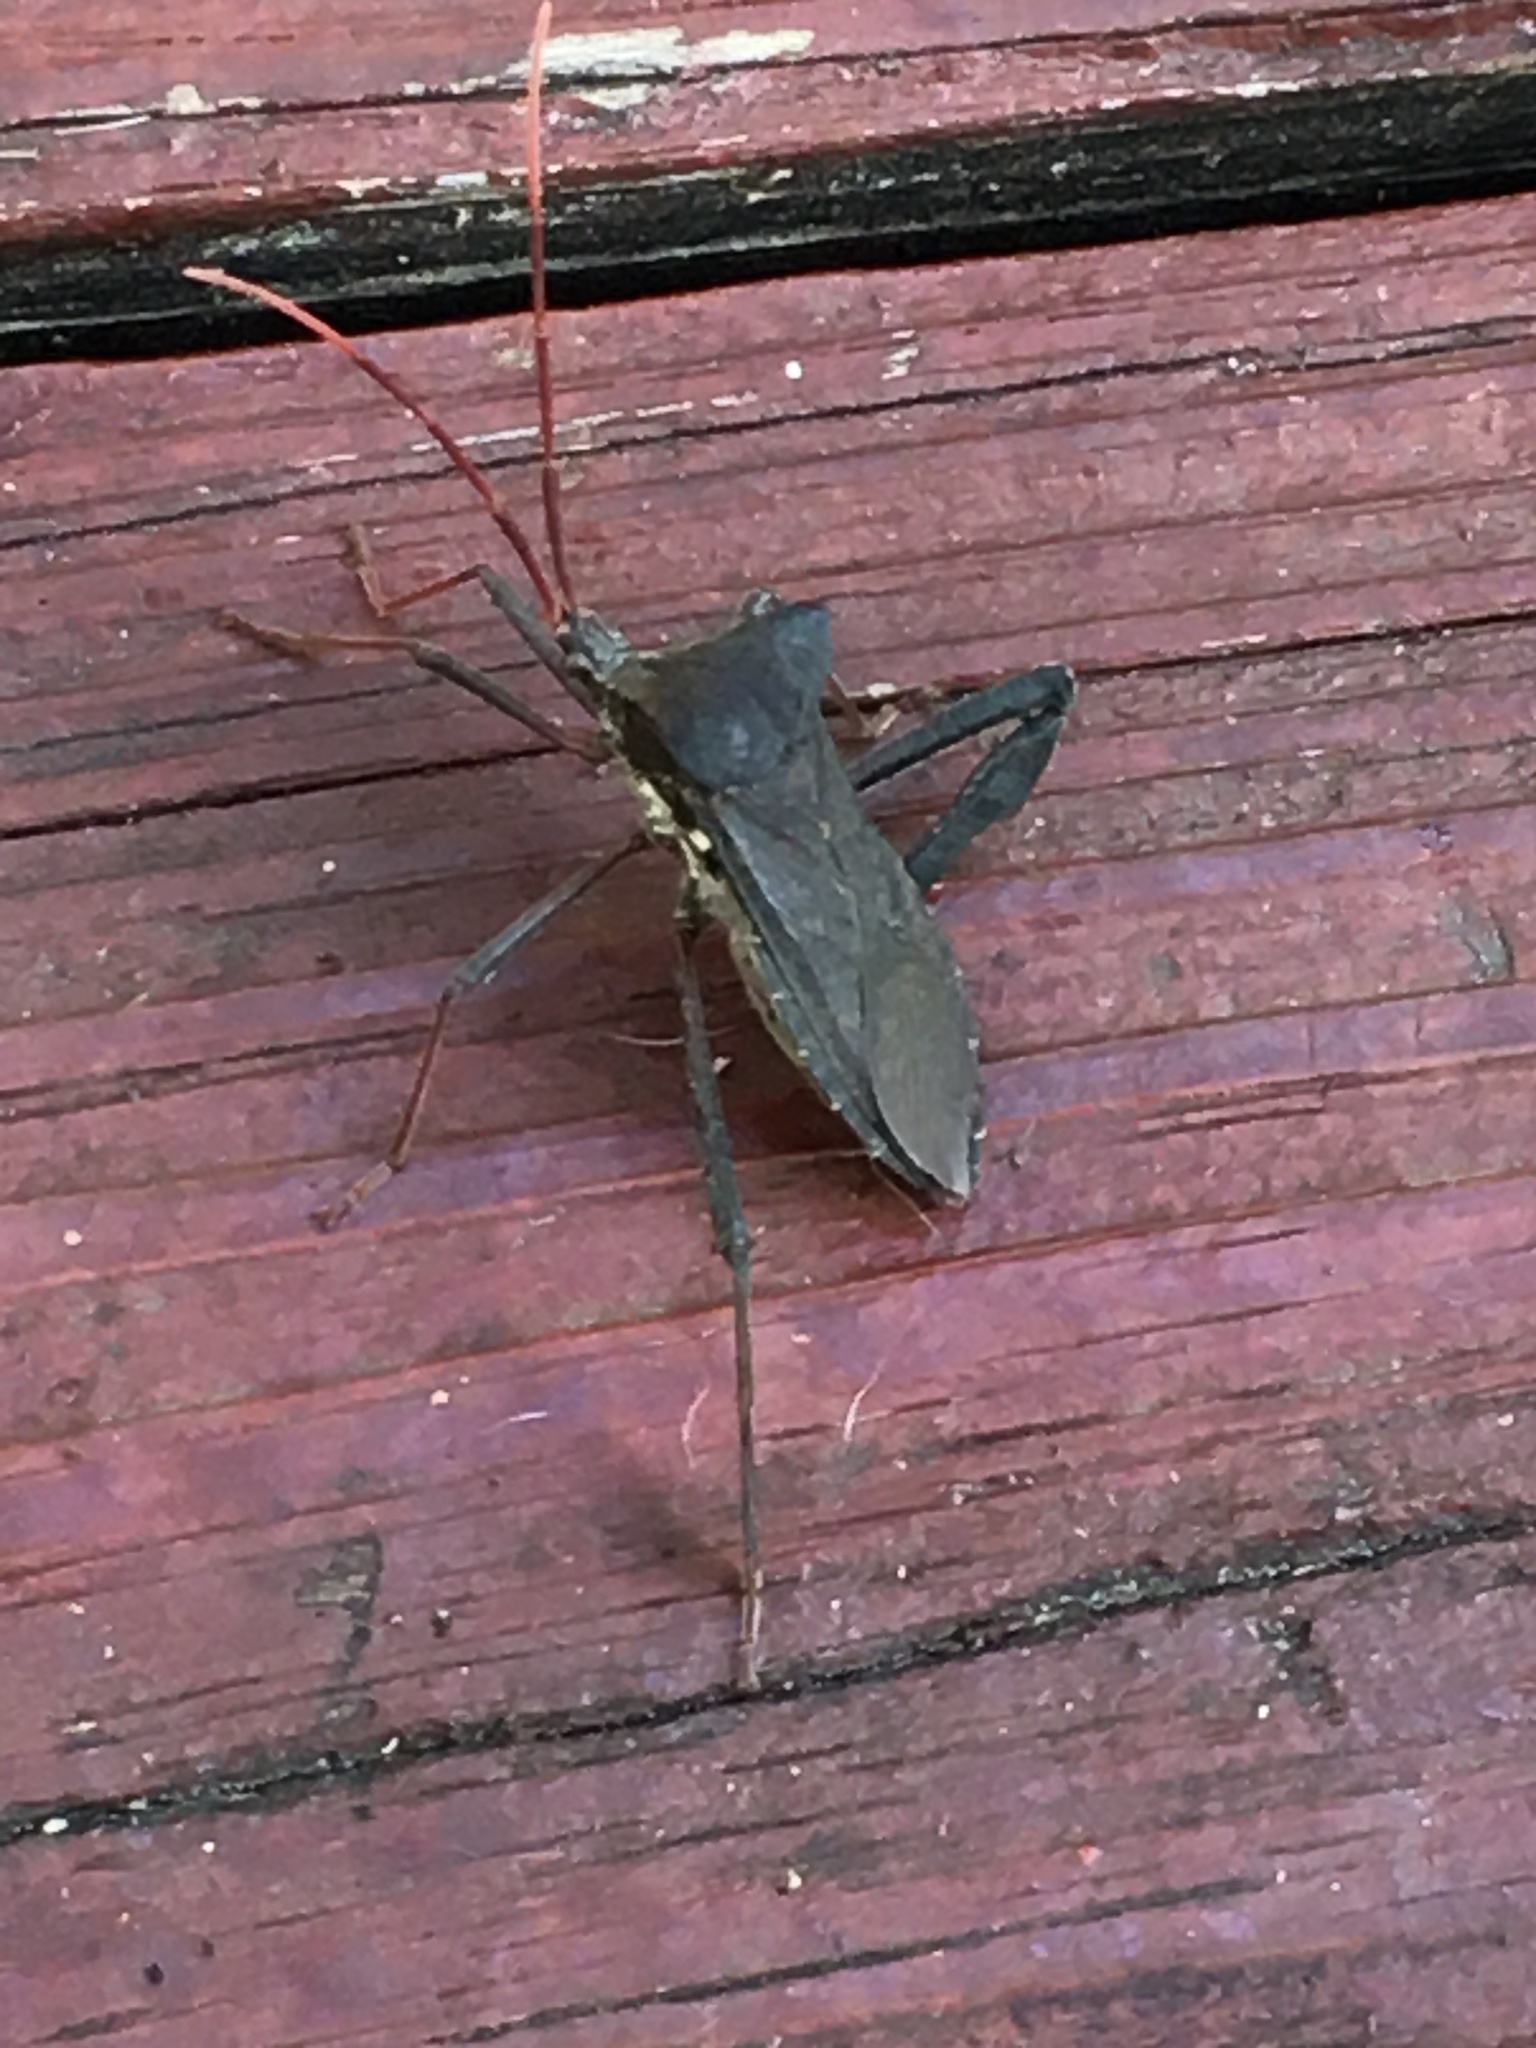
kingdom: Animalia
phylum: Arthropoda
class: Insecta
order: Hemiptera
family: Coreidae
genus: Acanthocephala
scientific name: Acanthocephala declivis
